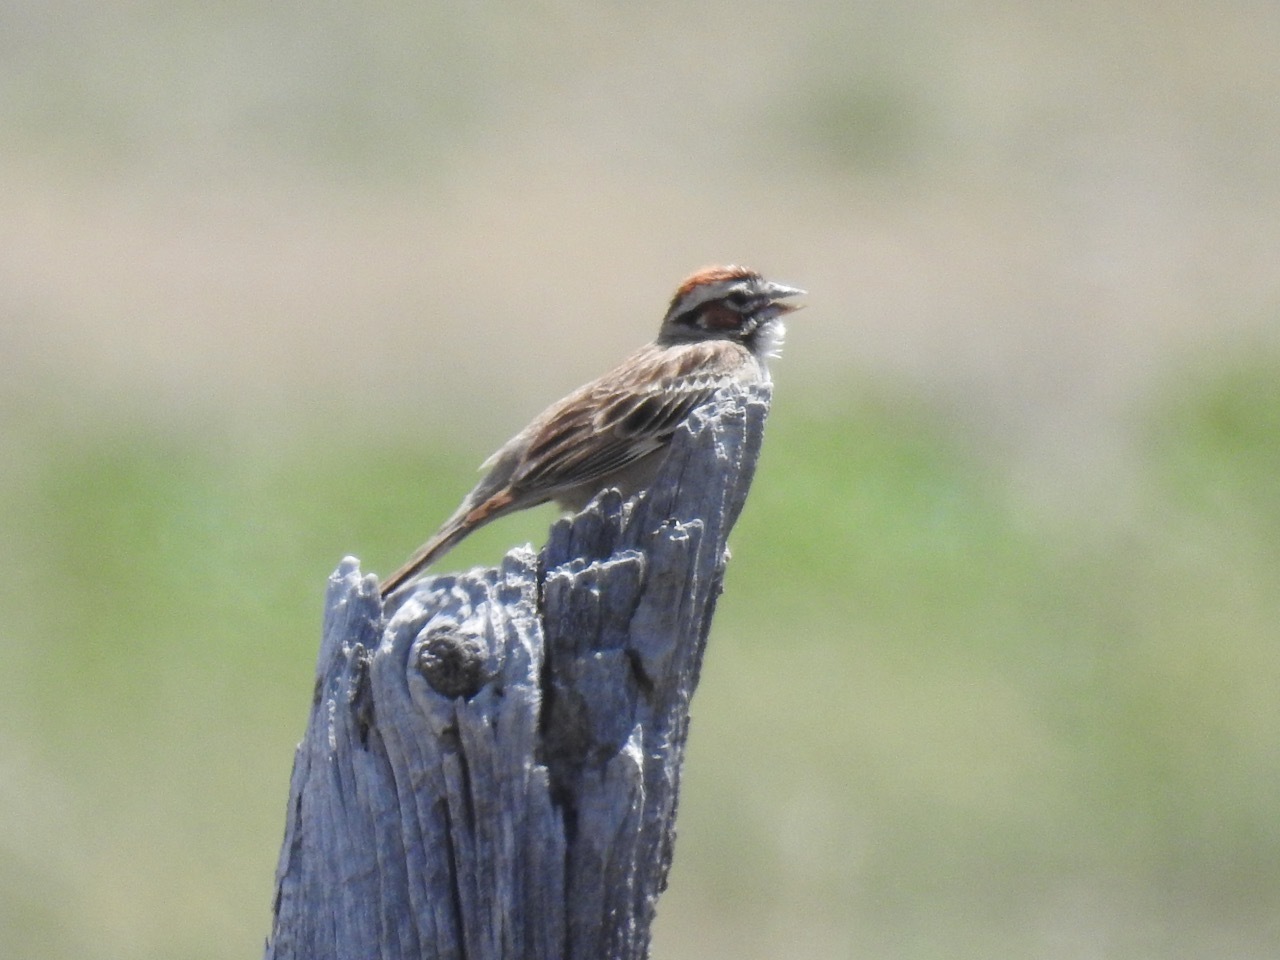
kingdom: Animalia
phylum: Chordata
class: Aves
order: Passeriformes
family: Passerellidae
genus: Chondestes
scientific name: Chondestes grammacus
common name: Lark sparrow
